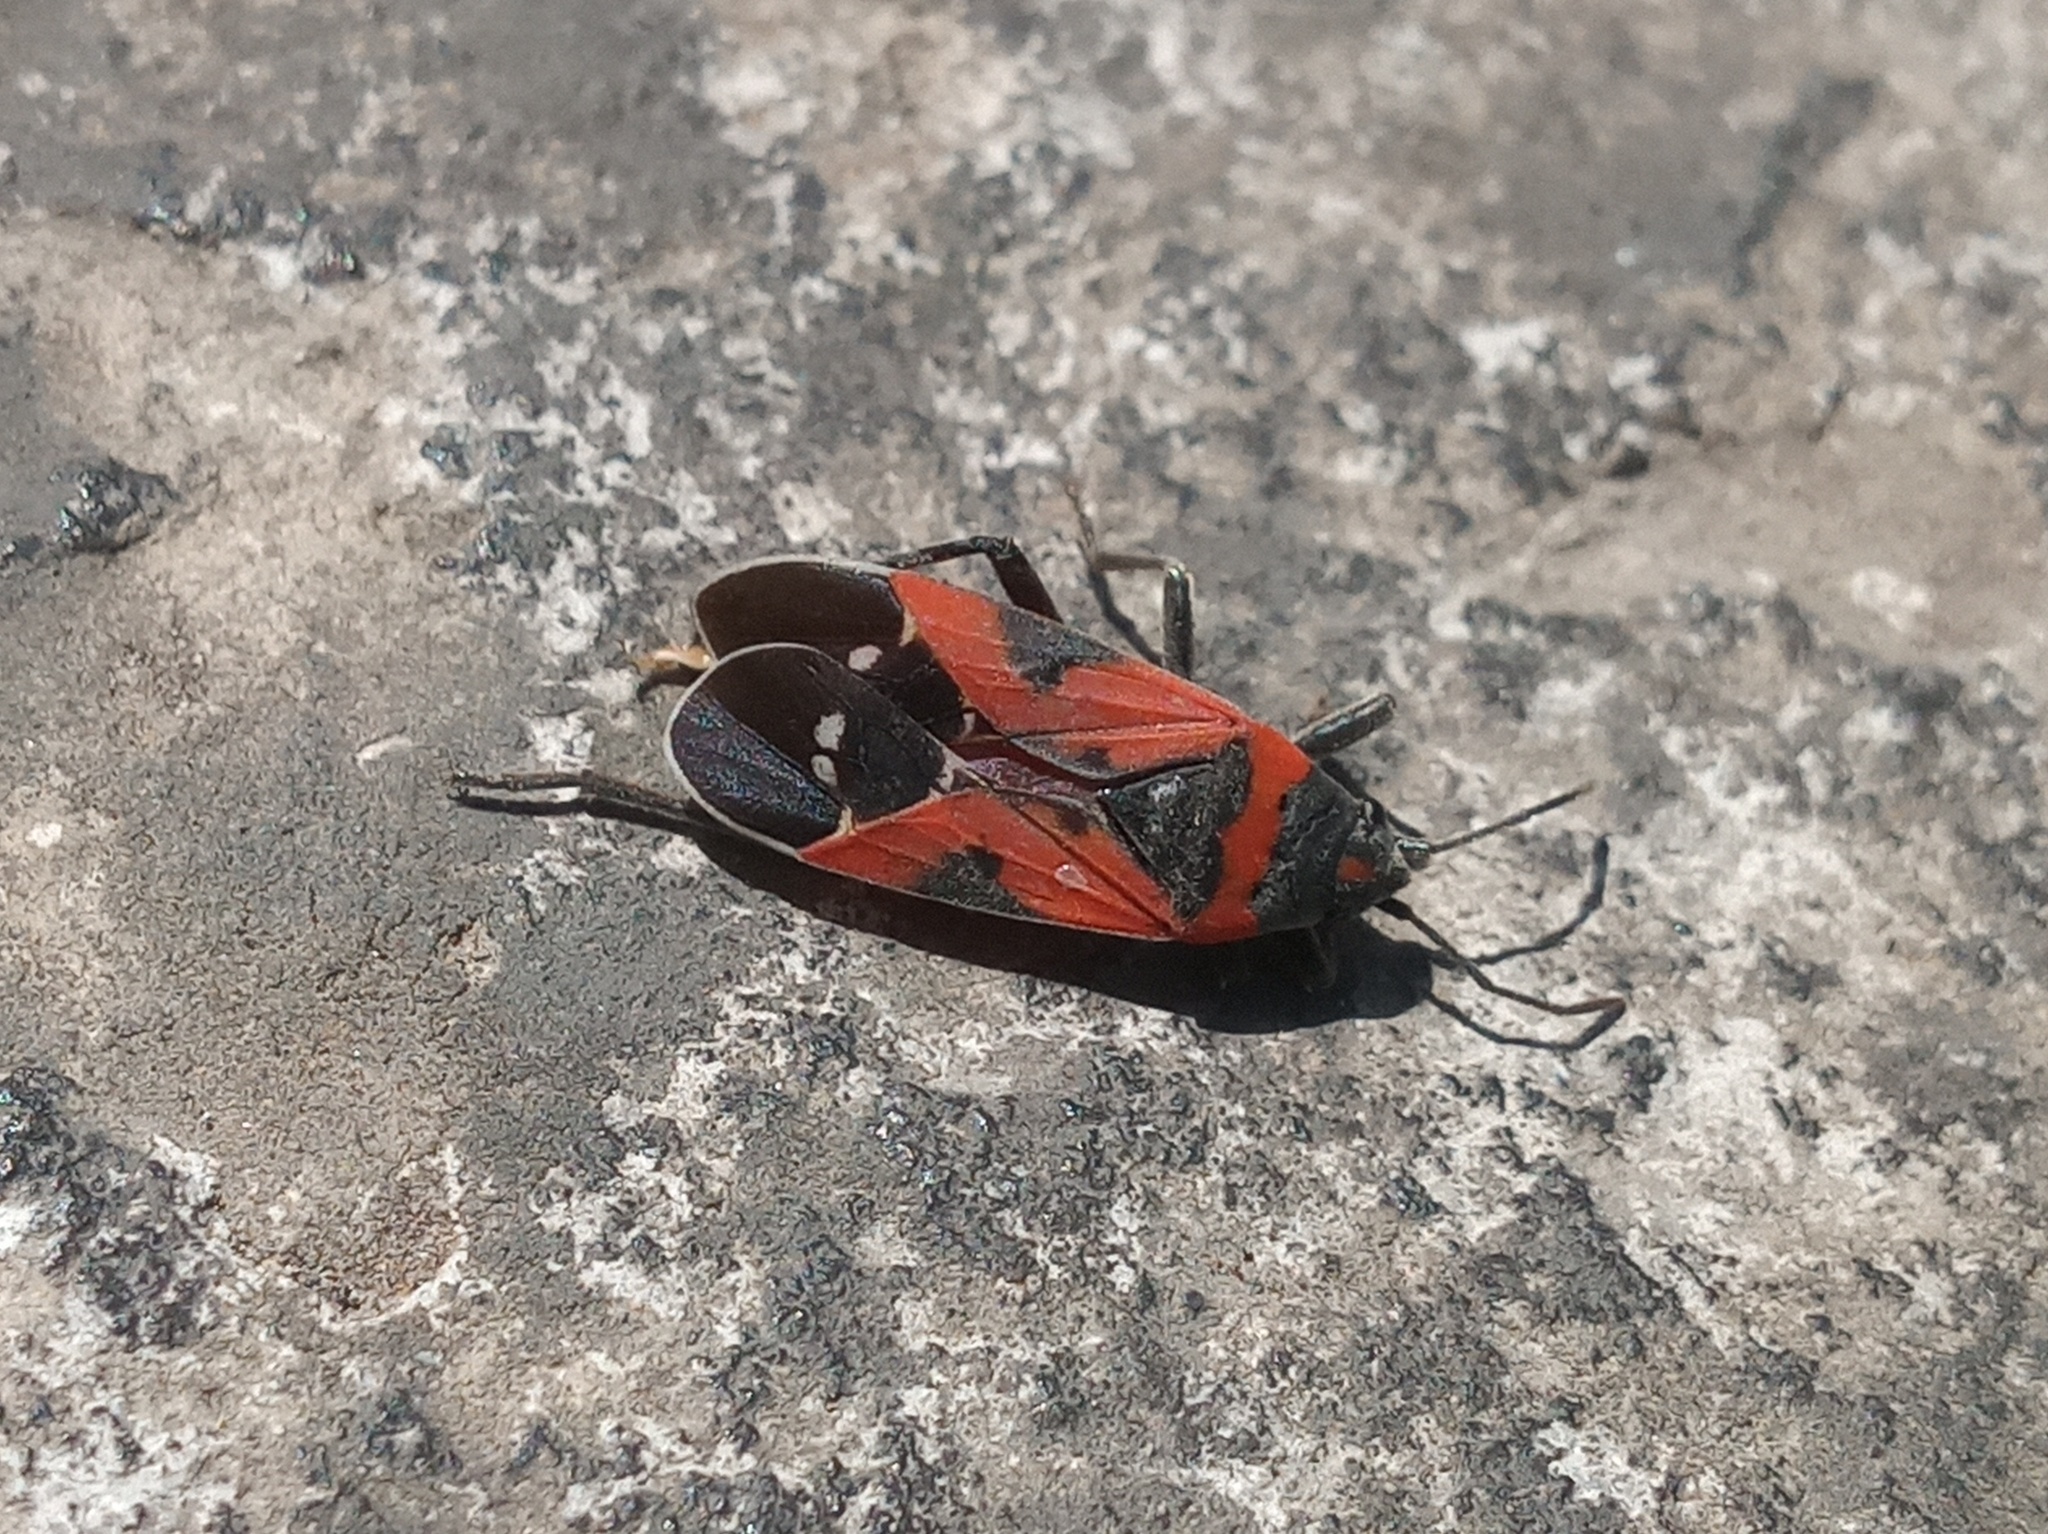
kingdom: Animalia
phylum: Arthropoda
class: Insecta
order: Hemiptera
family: Lygaeidae
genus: Lygaeus
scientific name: Lygaeus reclivatus
